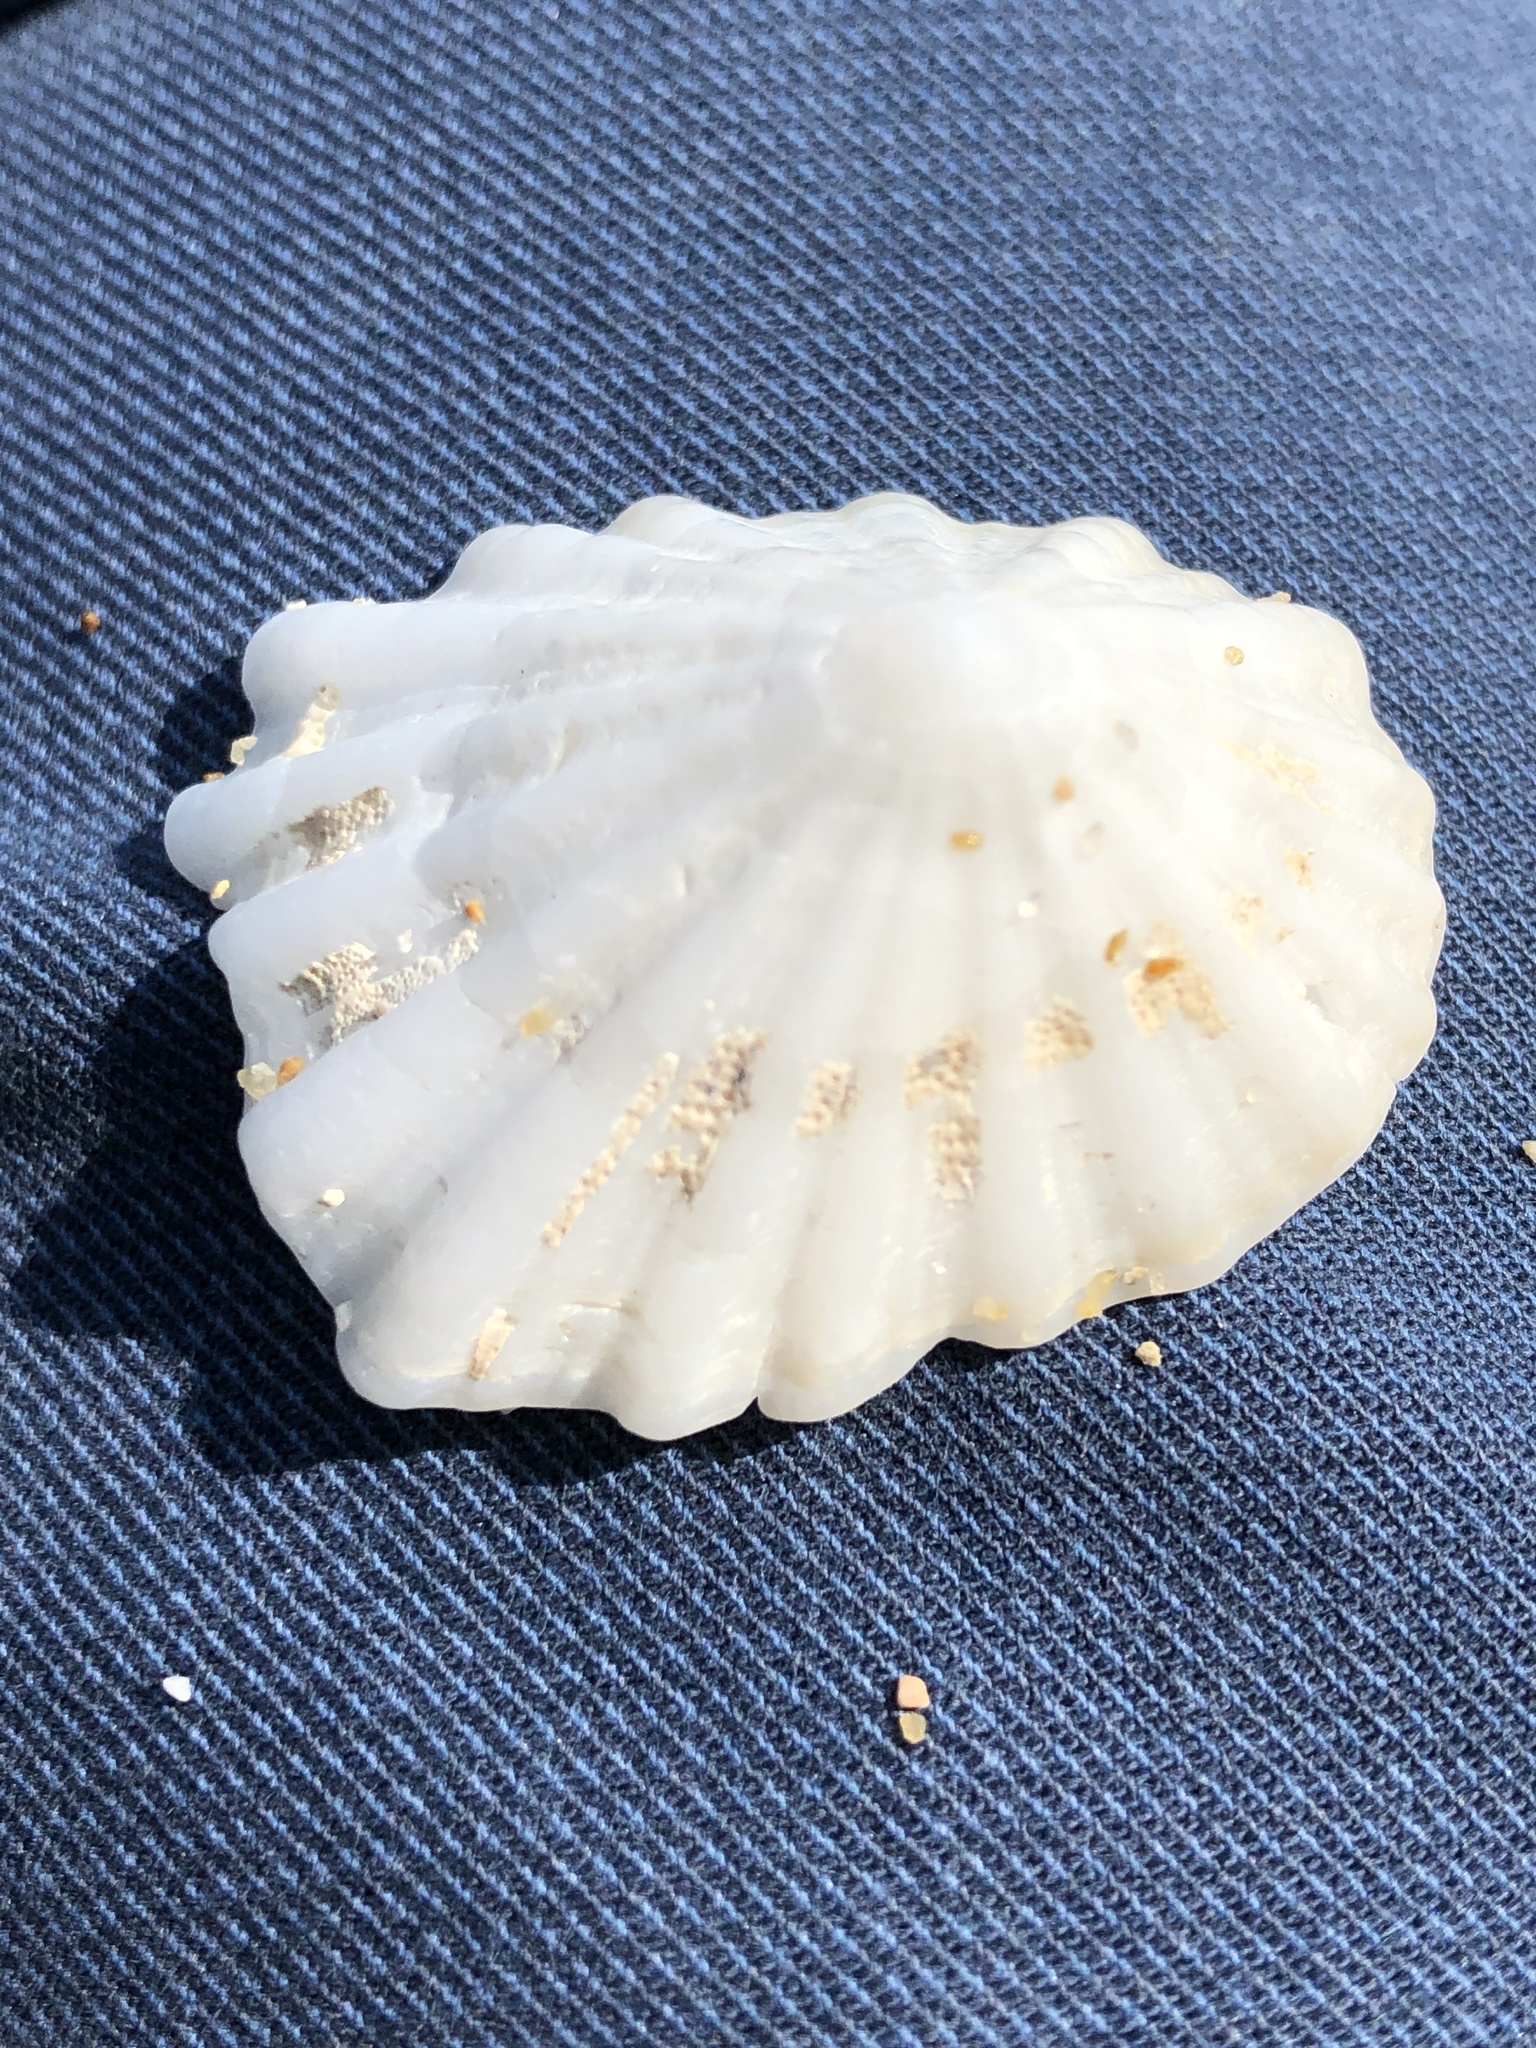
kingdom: Animalia
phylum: Mollusca
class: Gastropoda
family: Lottiidae
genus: Niveotectura
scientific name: Niveotectura pallida
